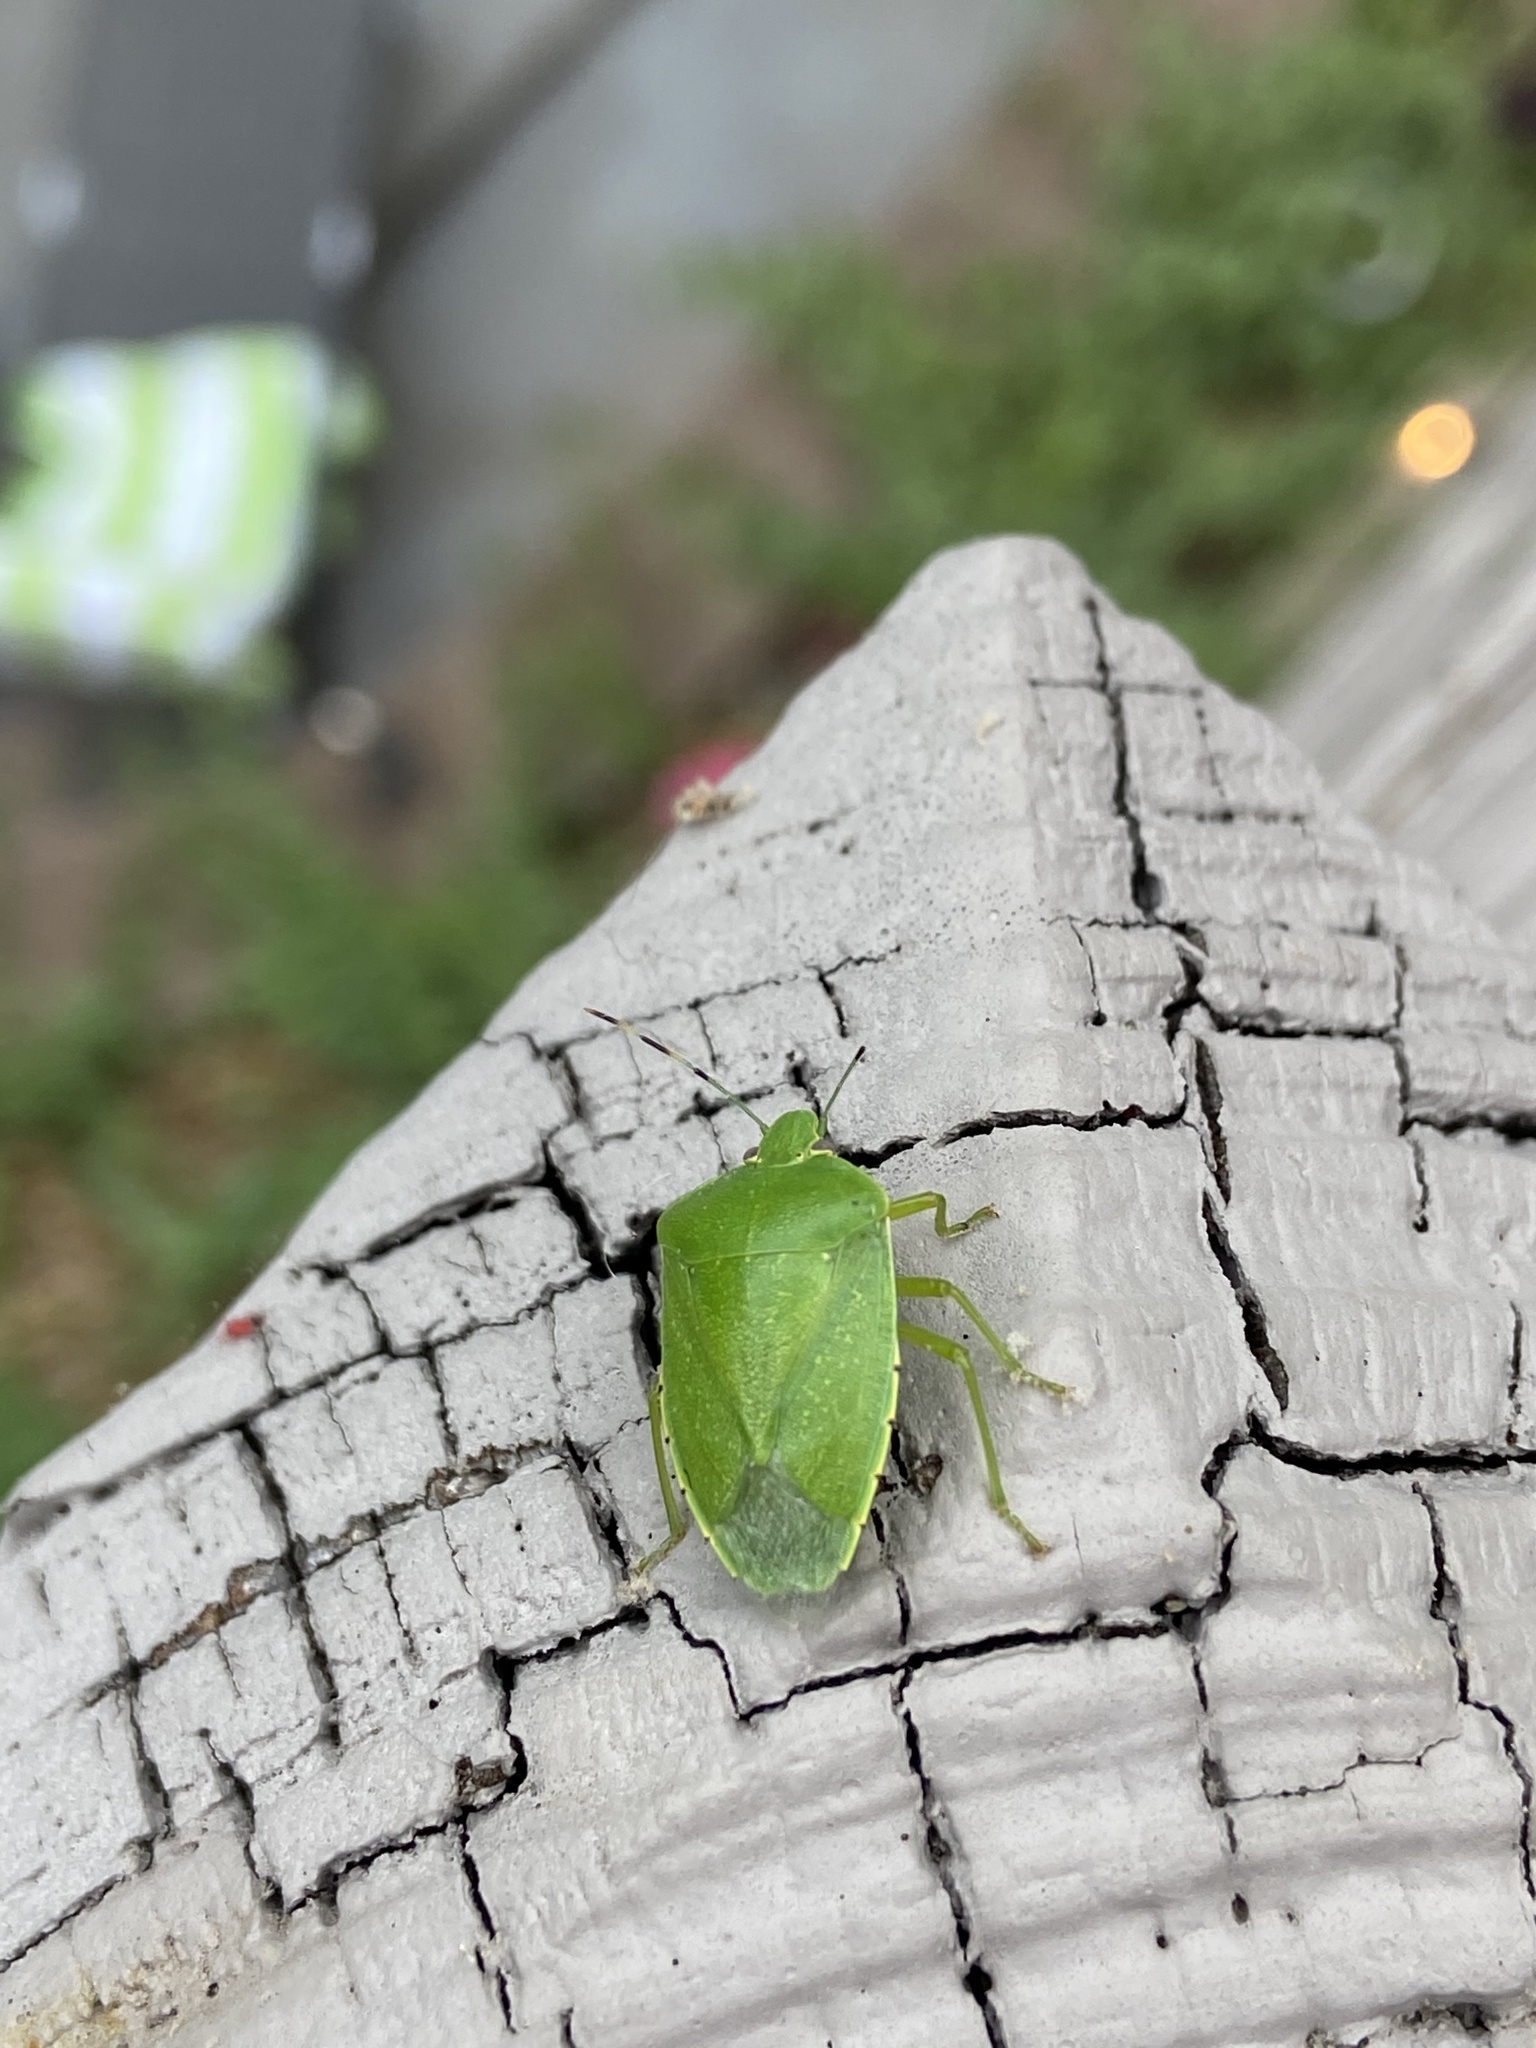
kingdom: Animalia
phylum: Arthropoda
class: Insecta
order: Hemiptera
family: Pentatomidae
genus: Chinavia
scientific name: Chinavia hilaris
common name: Green stink bug
